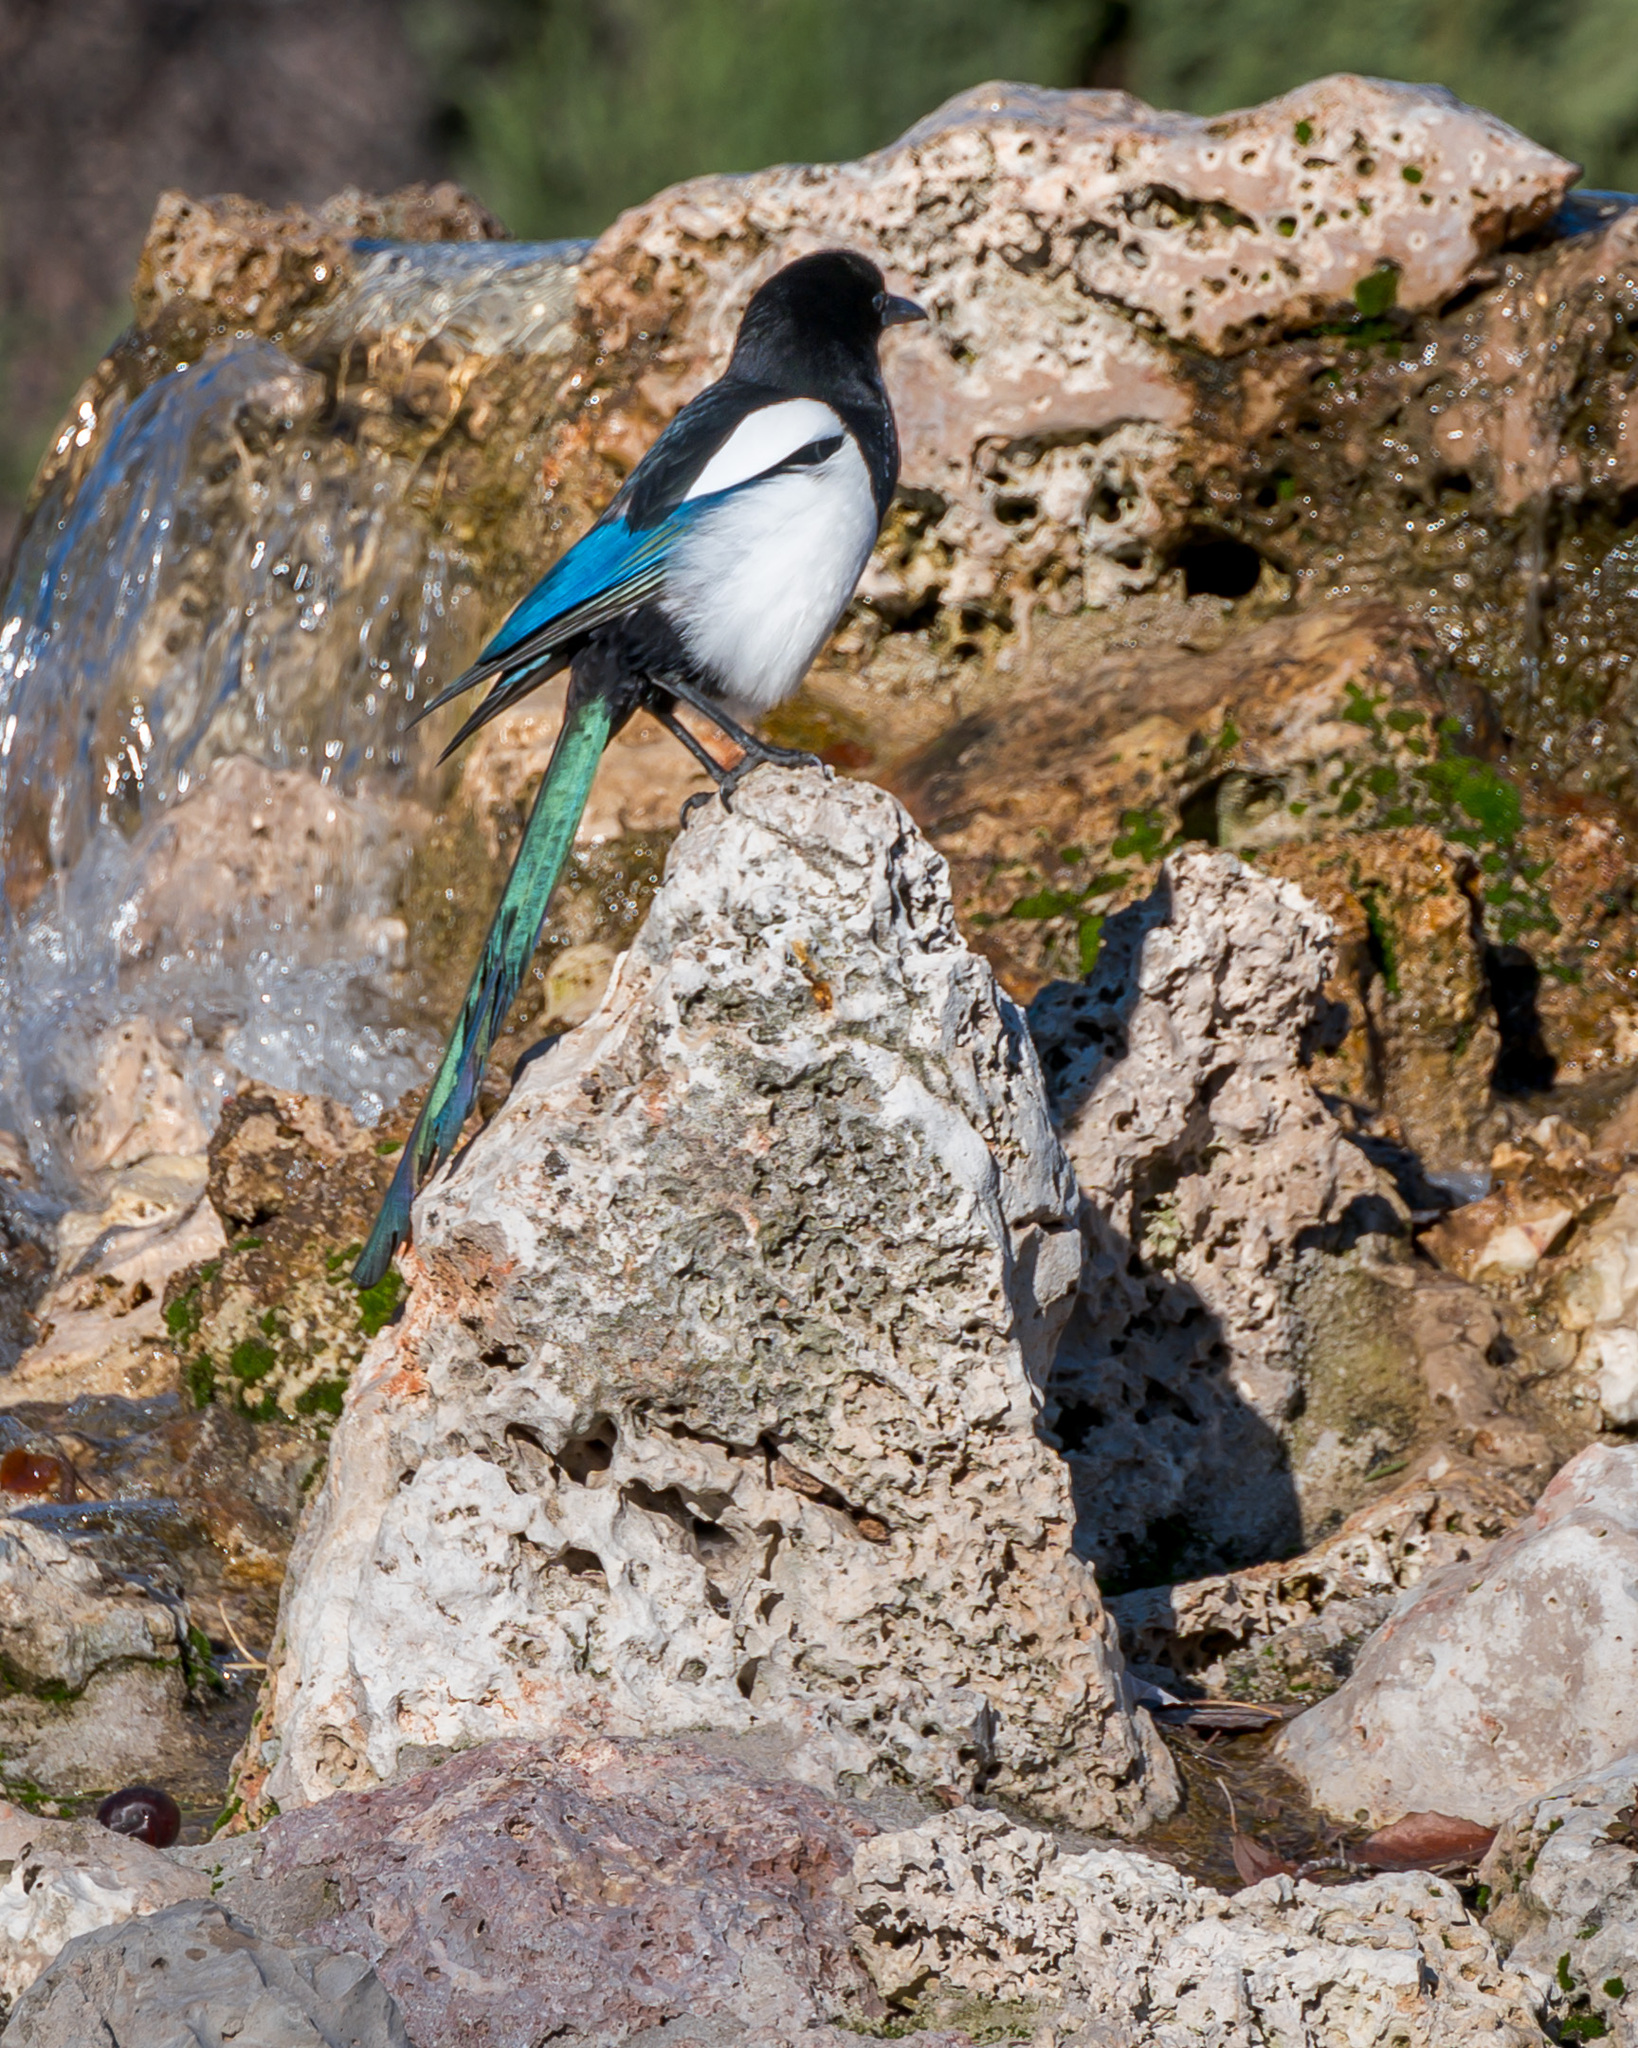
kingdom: Animalia
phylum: Chordata
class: Aves
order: Passeriformes
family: Corvidae
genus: Pica
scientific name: Pica pica
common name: Eurasian magpie
